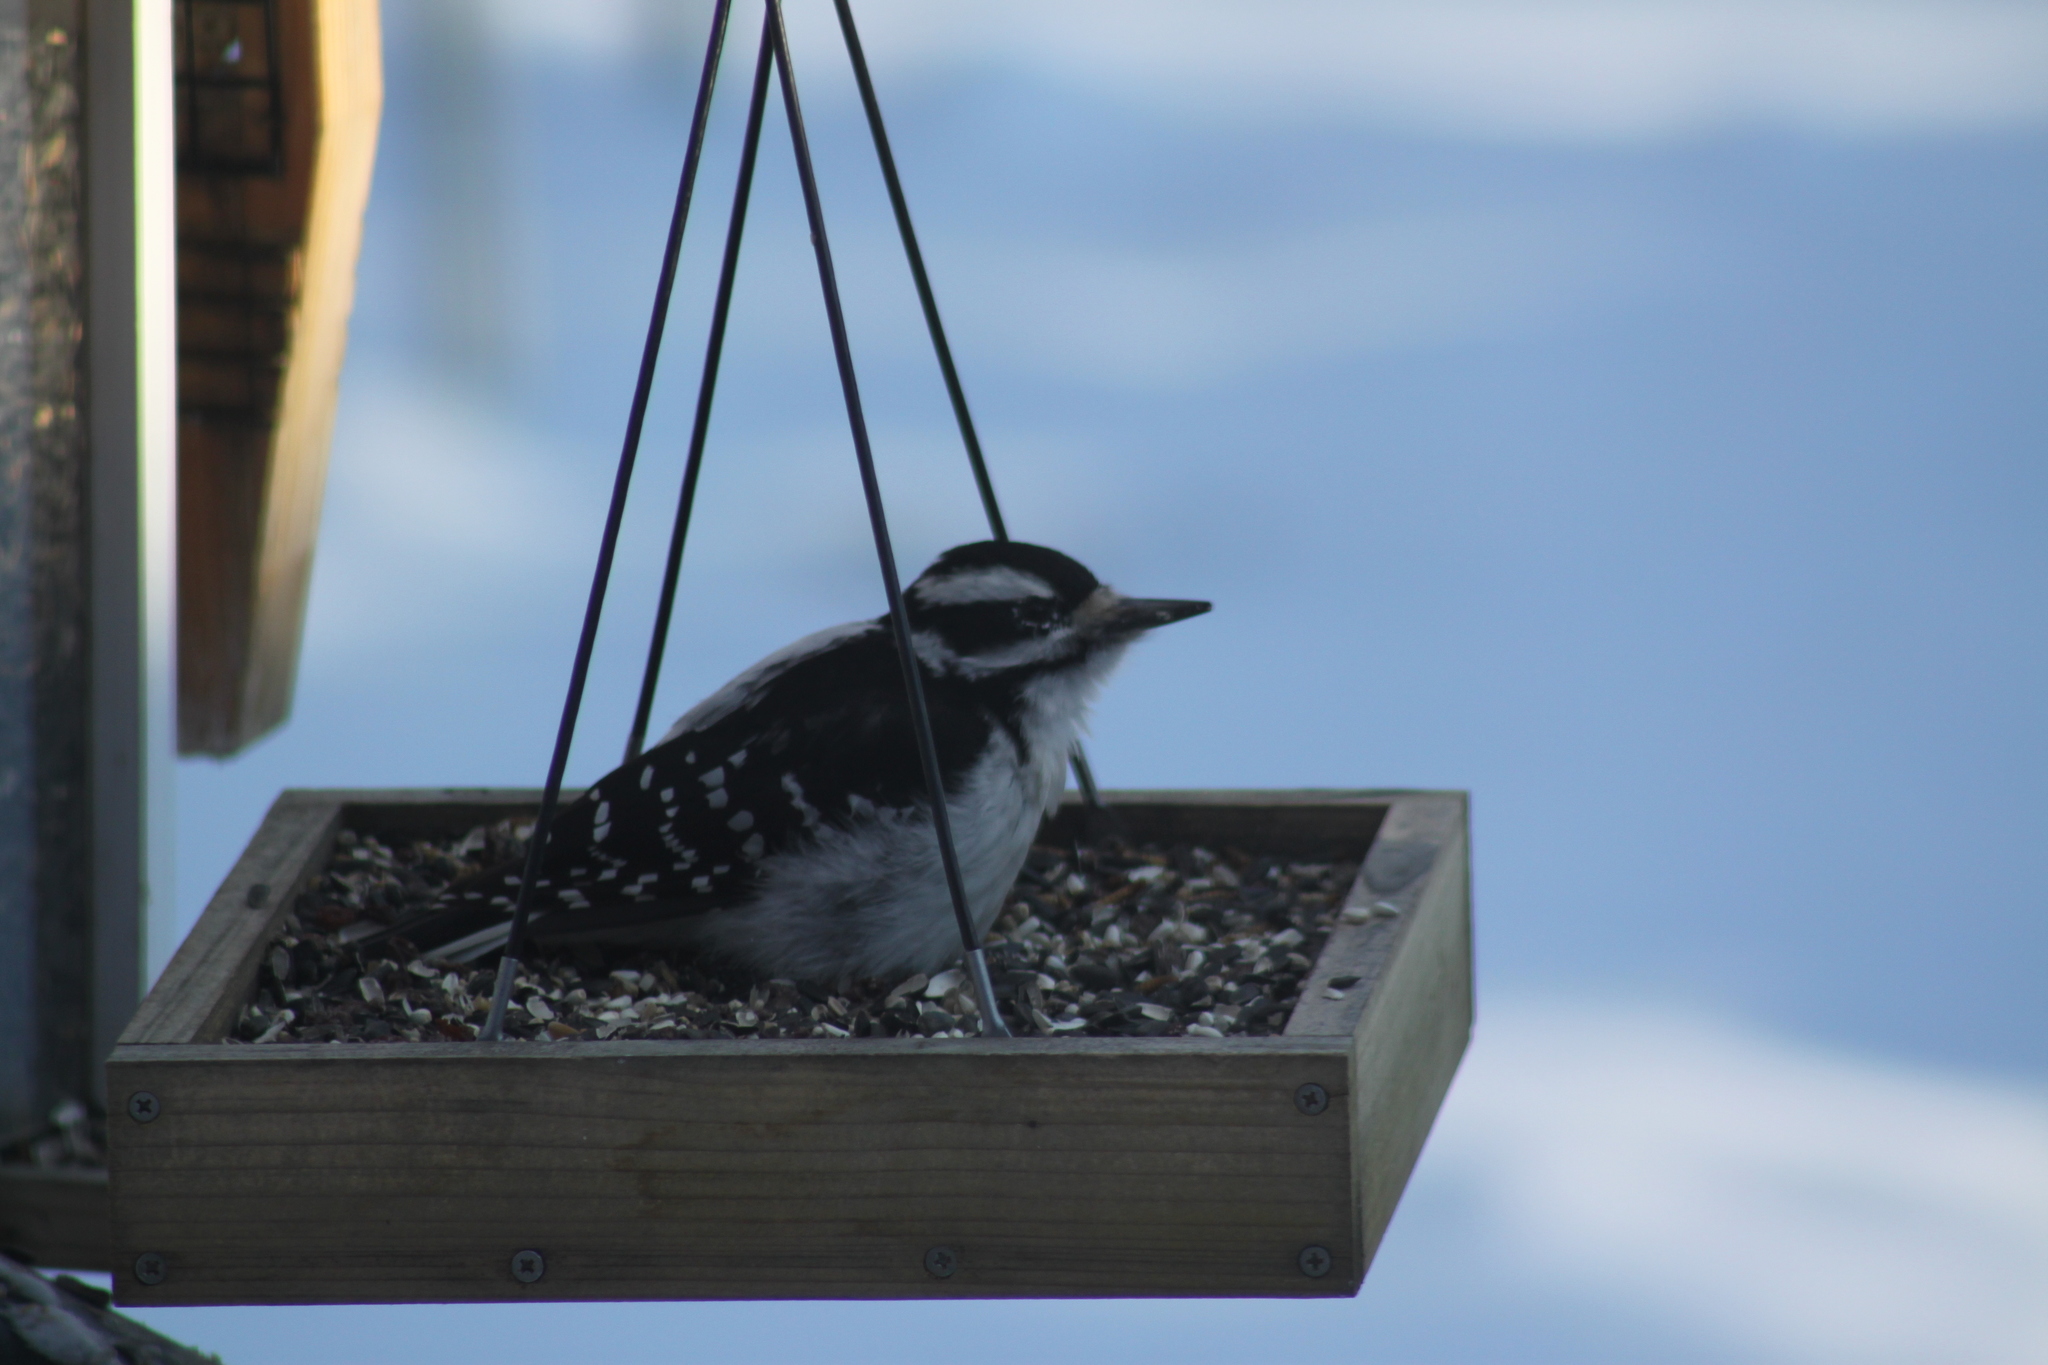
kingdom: Animalia
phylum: Chordata
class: Aves
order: Piciformes
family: Picidae
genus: Leuconotopicus
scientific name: Leuconotopicus villosus
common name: Hairy woodpecker
